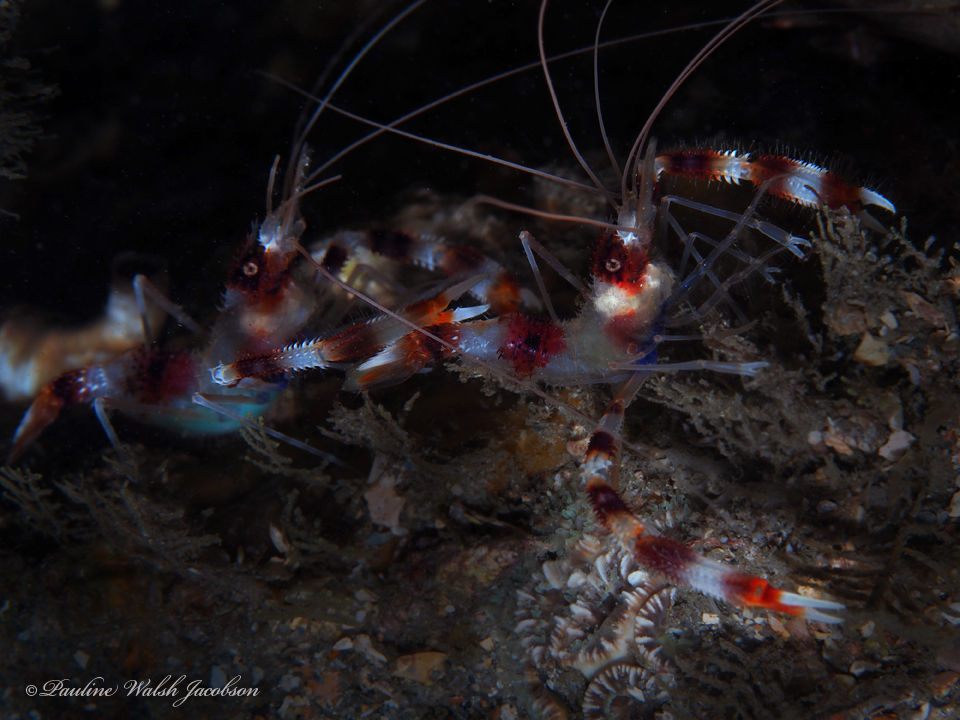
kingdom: Animalia
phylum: Arthropoda
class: Malacostraca
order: Decapoda
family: Stenopodidae
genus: Stenopus
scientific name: Stenopus hispidus
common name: Banded coral shrimp
